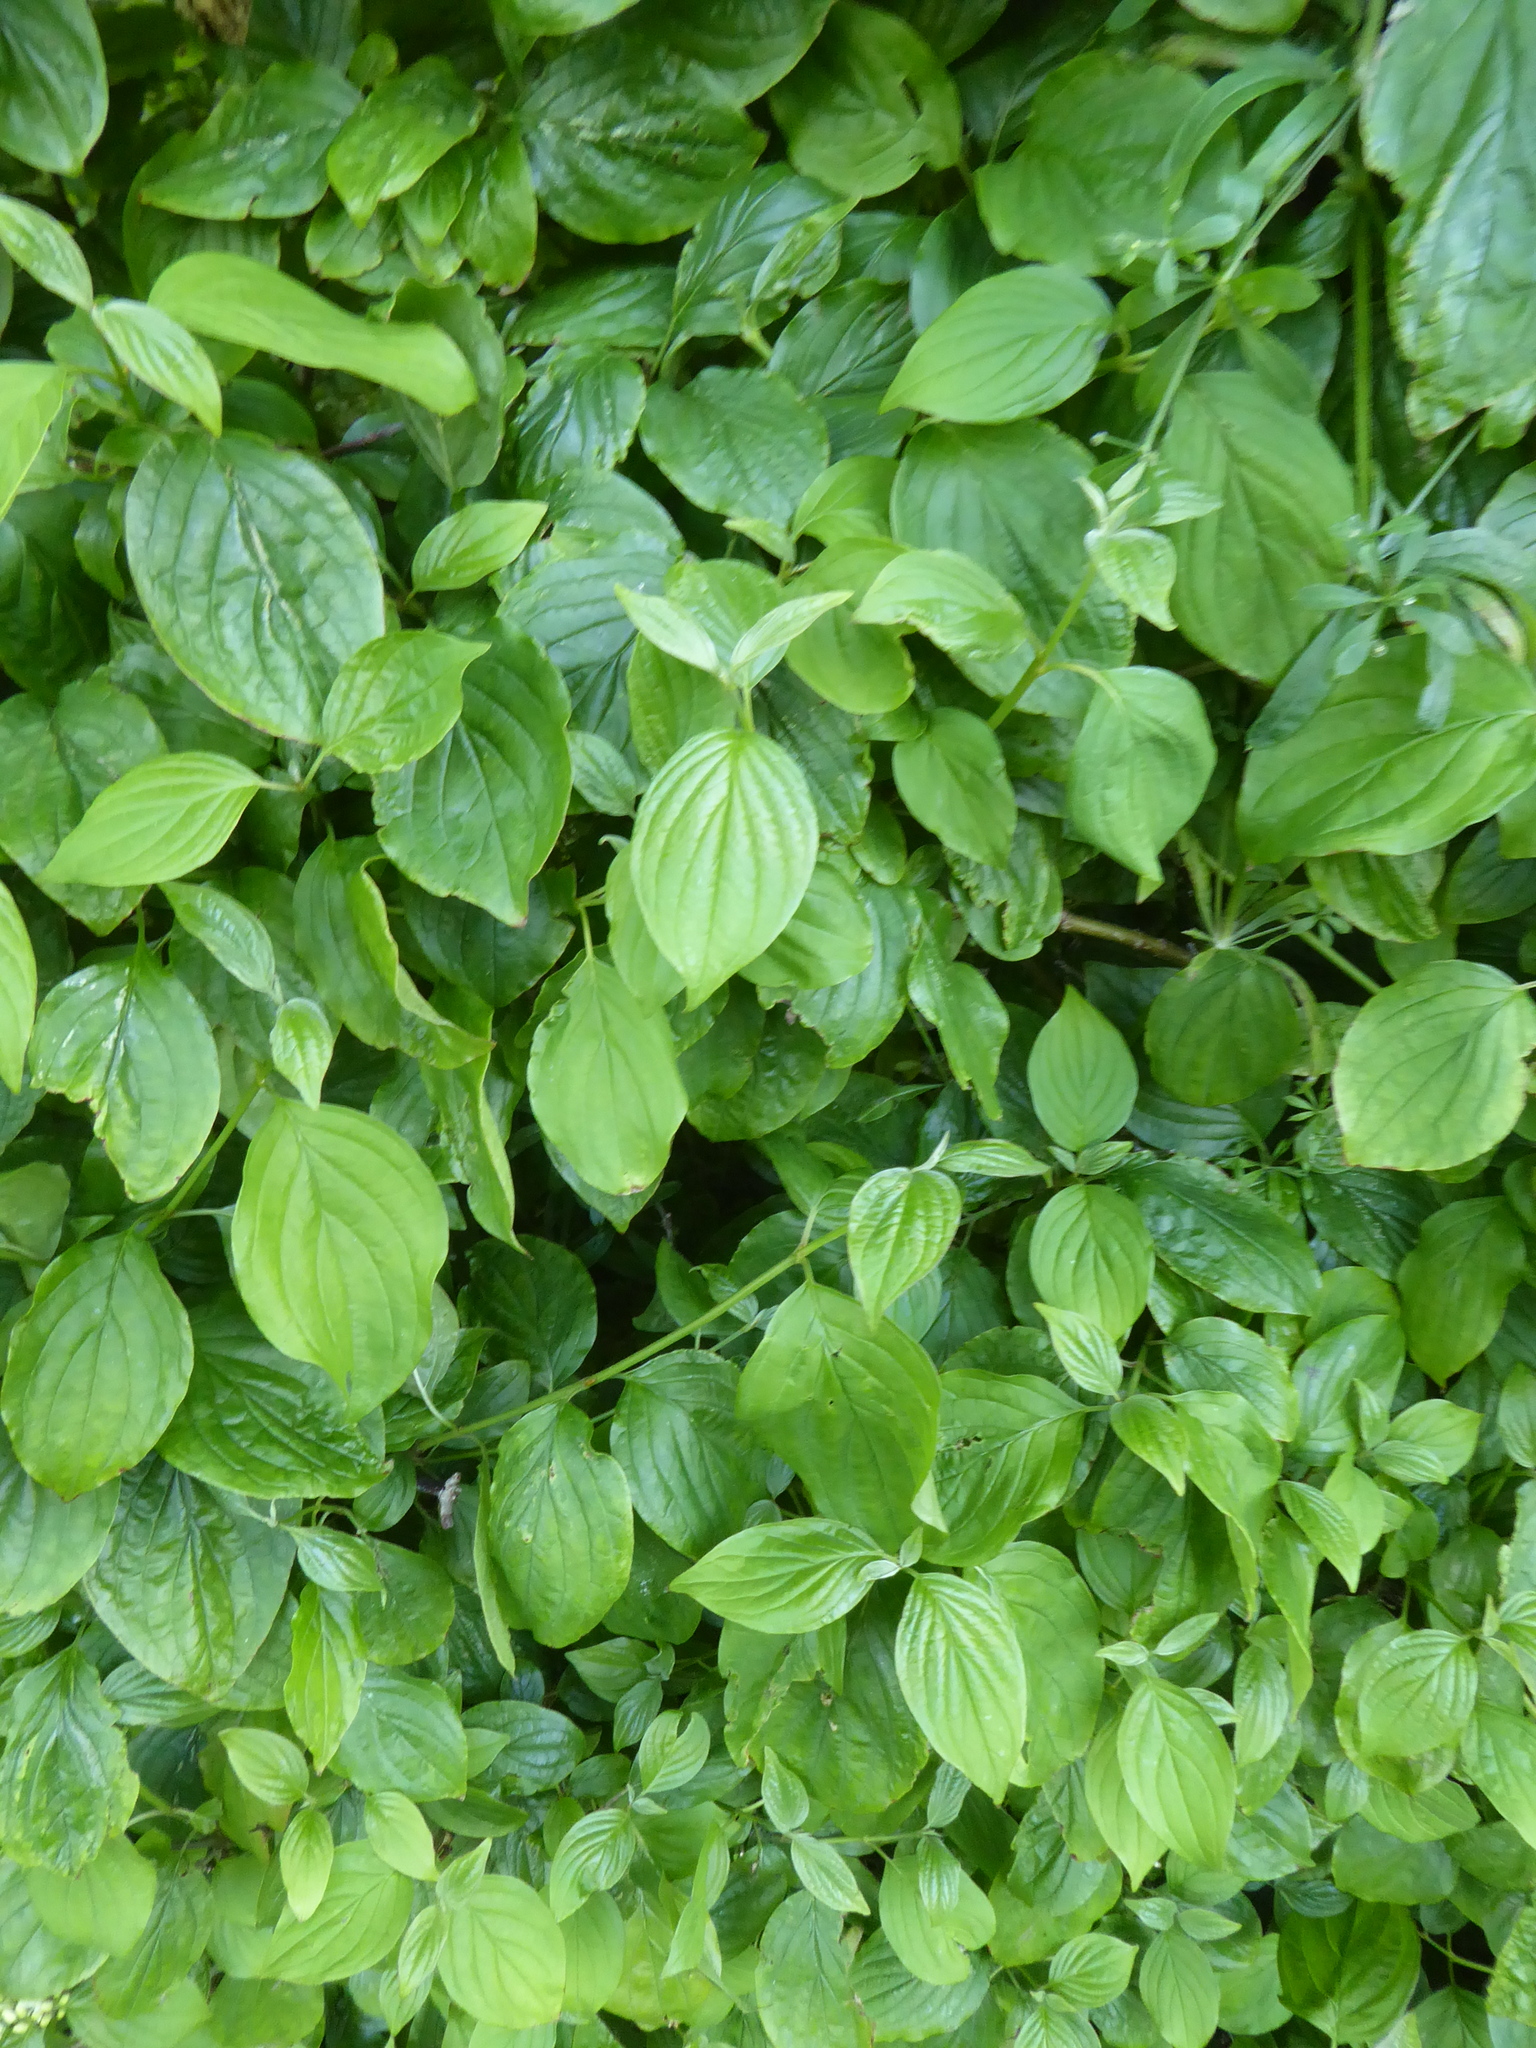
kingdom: Plantae
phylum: Tracheophyta
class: Magnoliopsida
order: Cornales
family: Cornaceae
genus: Cornus
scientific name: Cornus sanguinea
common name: Dogwood
